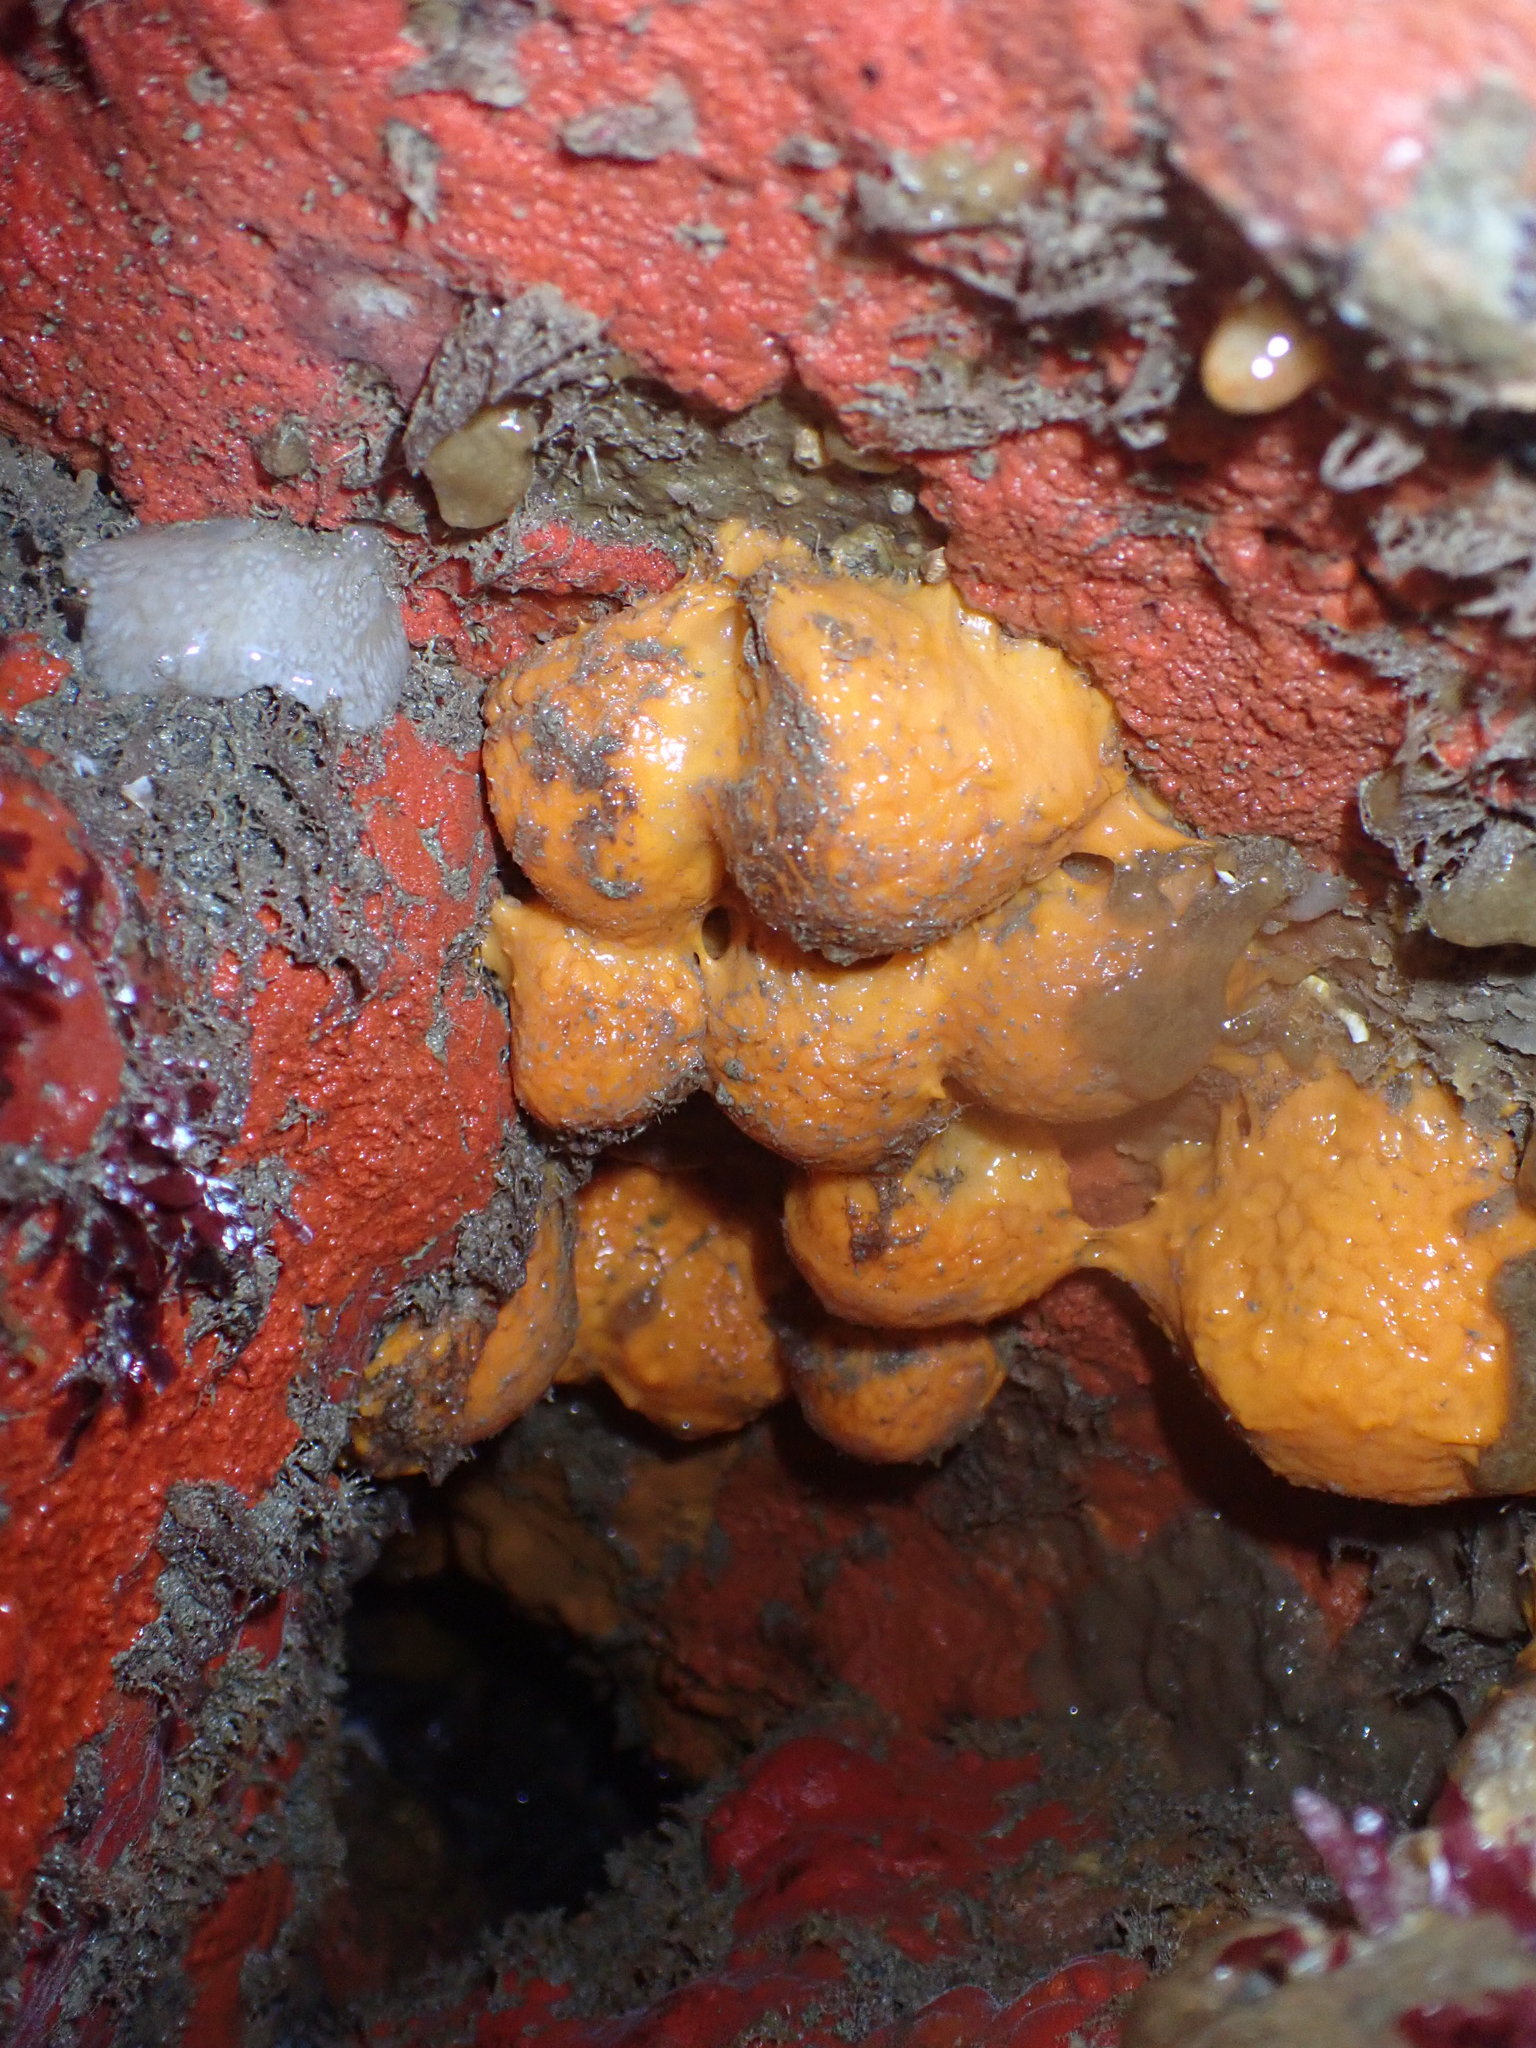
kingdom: Animalia
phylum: Porifera
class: Demospongiae
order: Tethyida
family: Tethyidae
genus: Tethya
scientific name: Tethya burtoni
